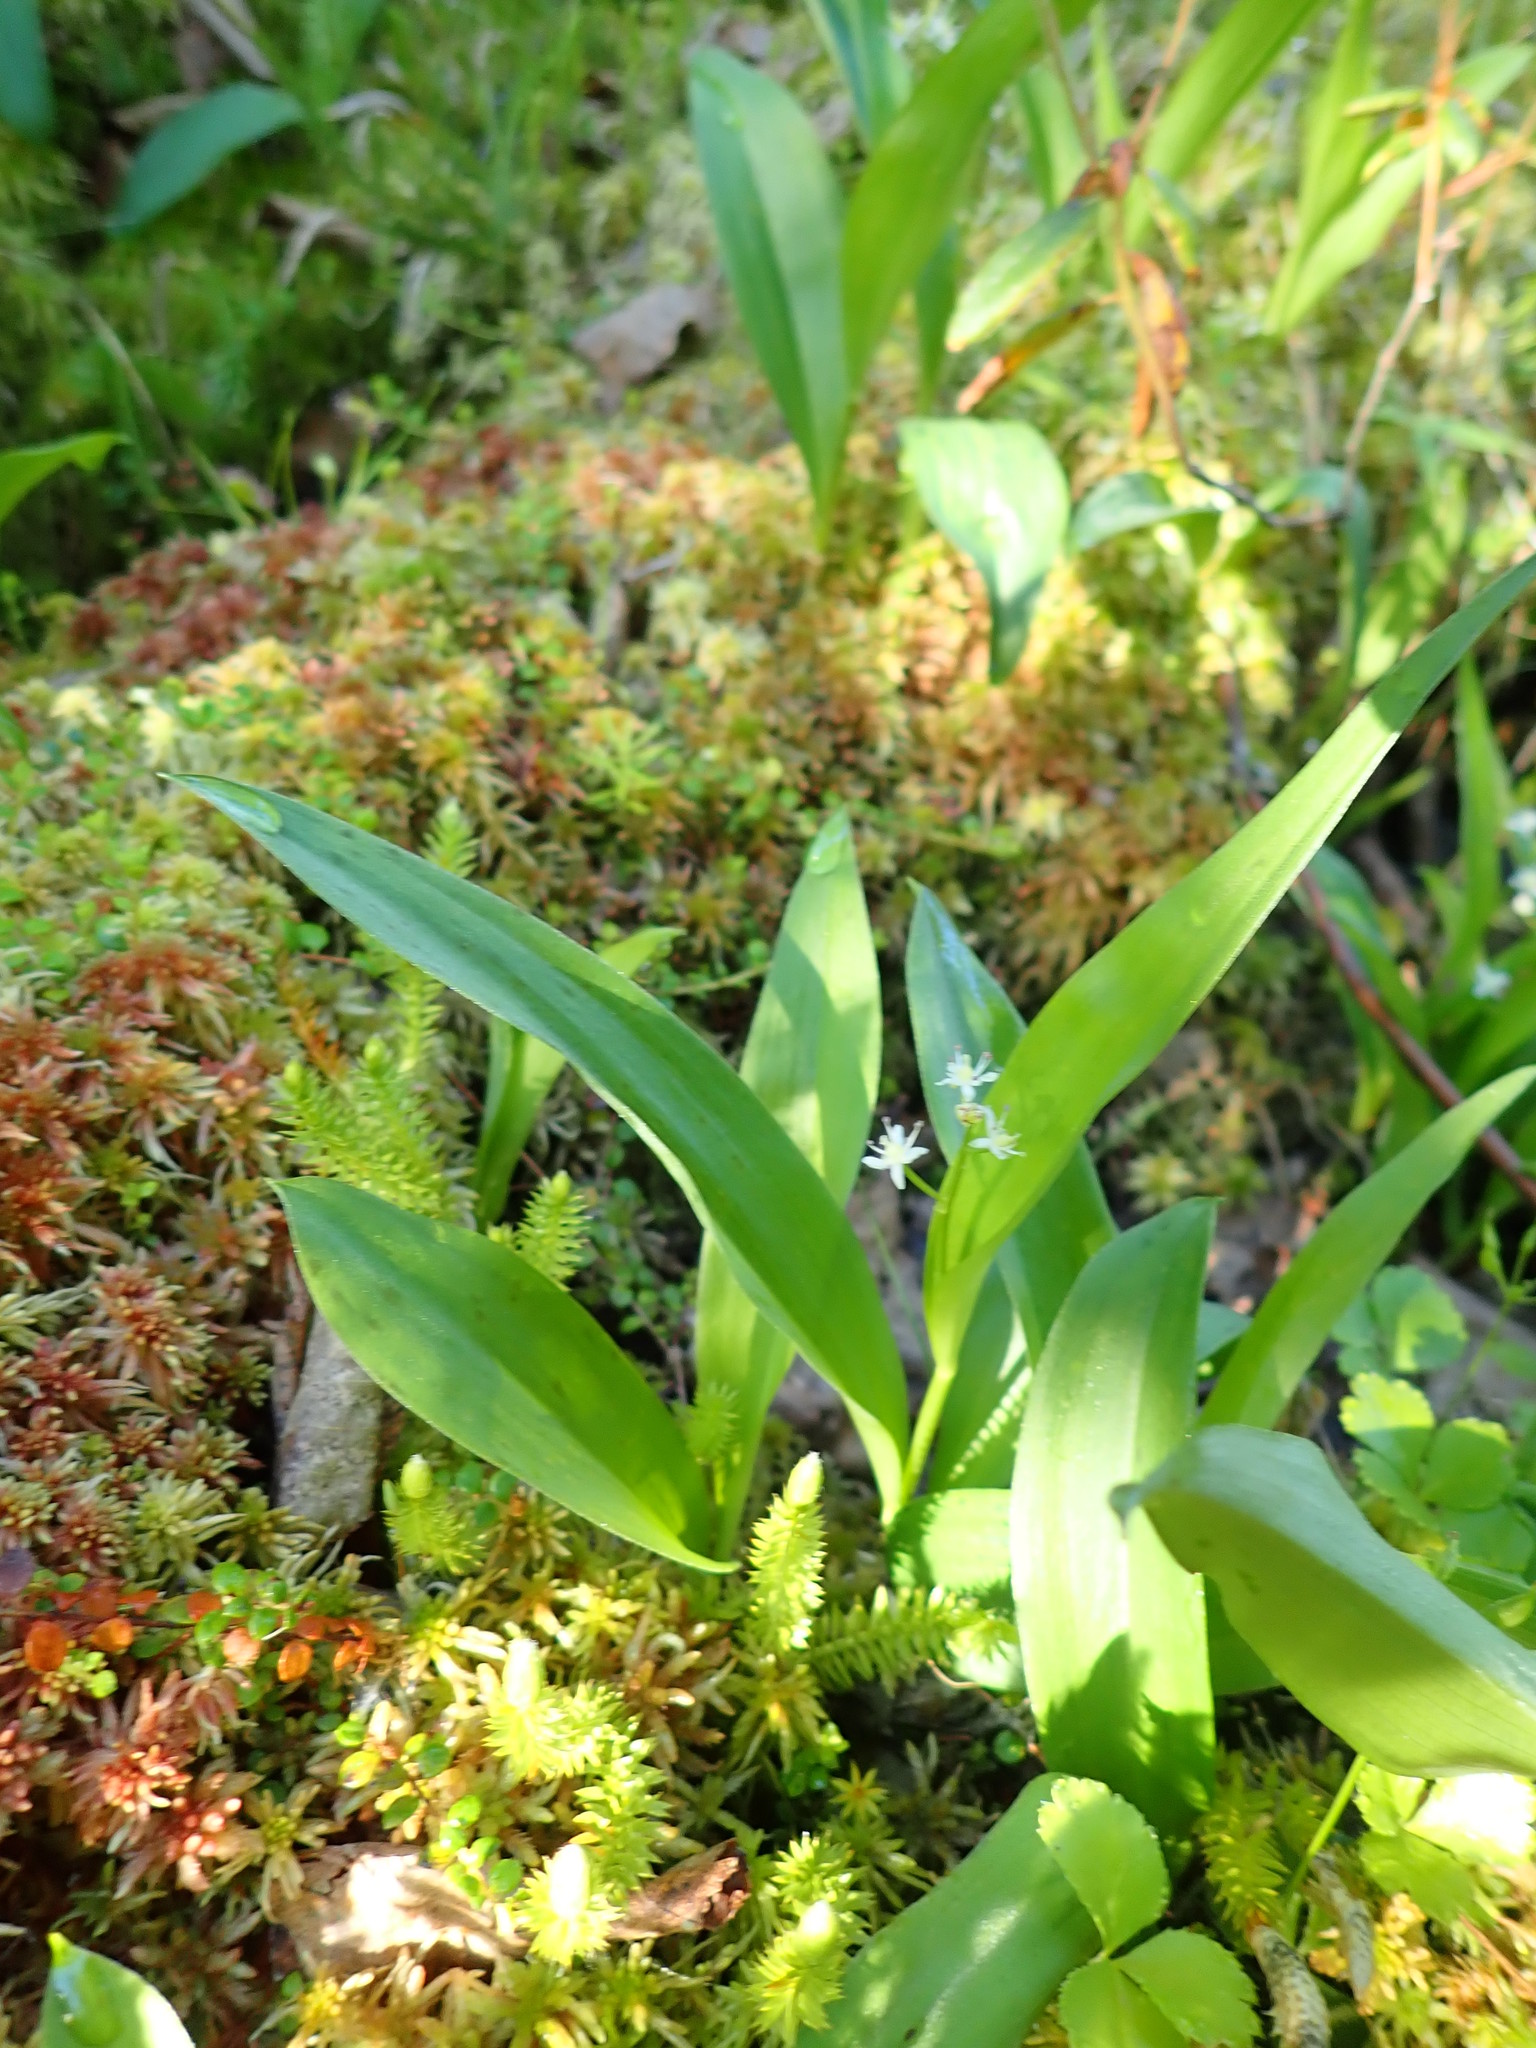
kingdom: Plantae
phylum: Tracheophyta
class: Liliopsida
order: Asparagales
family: Asparagaceae
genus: Maianthemum
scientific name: Maianthemum trifolium
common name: Swamp false solomon's seal
